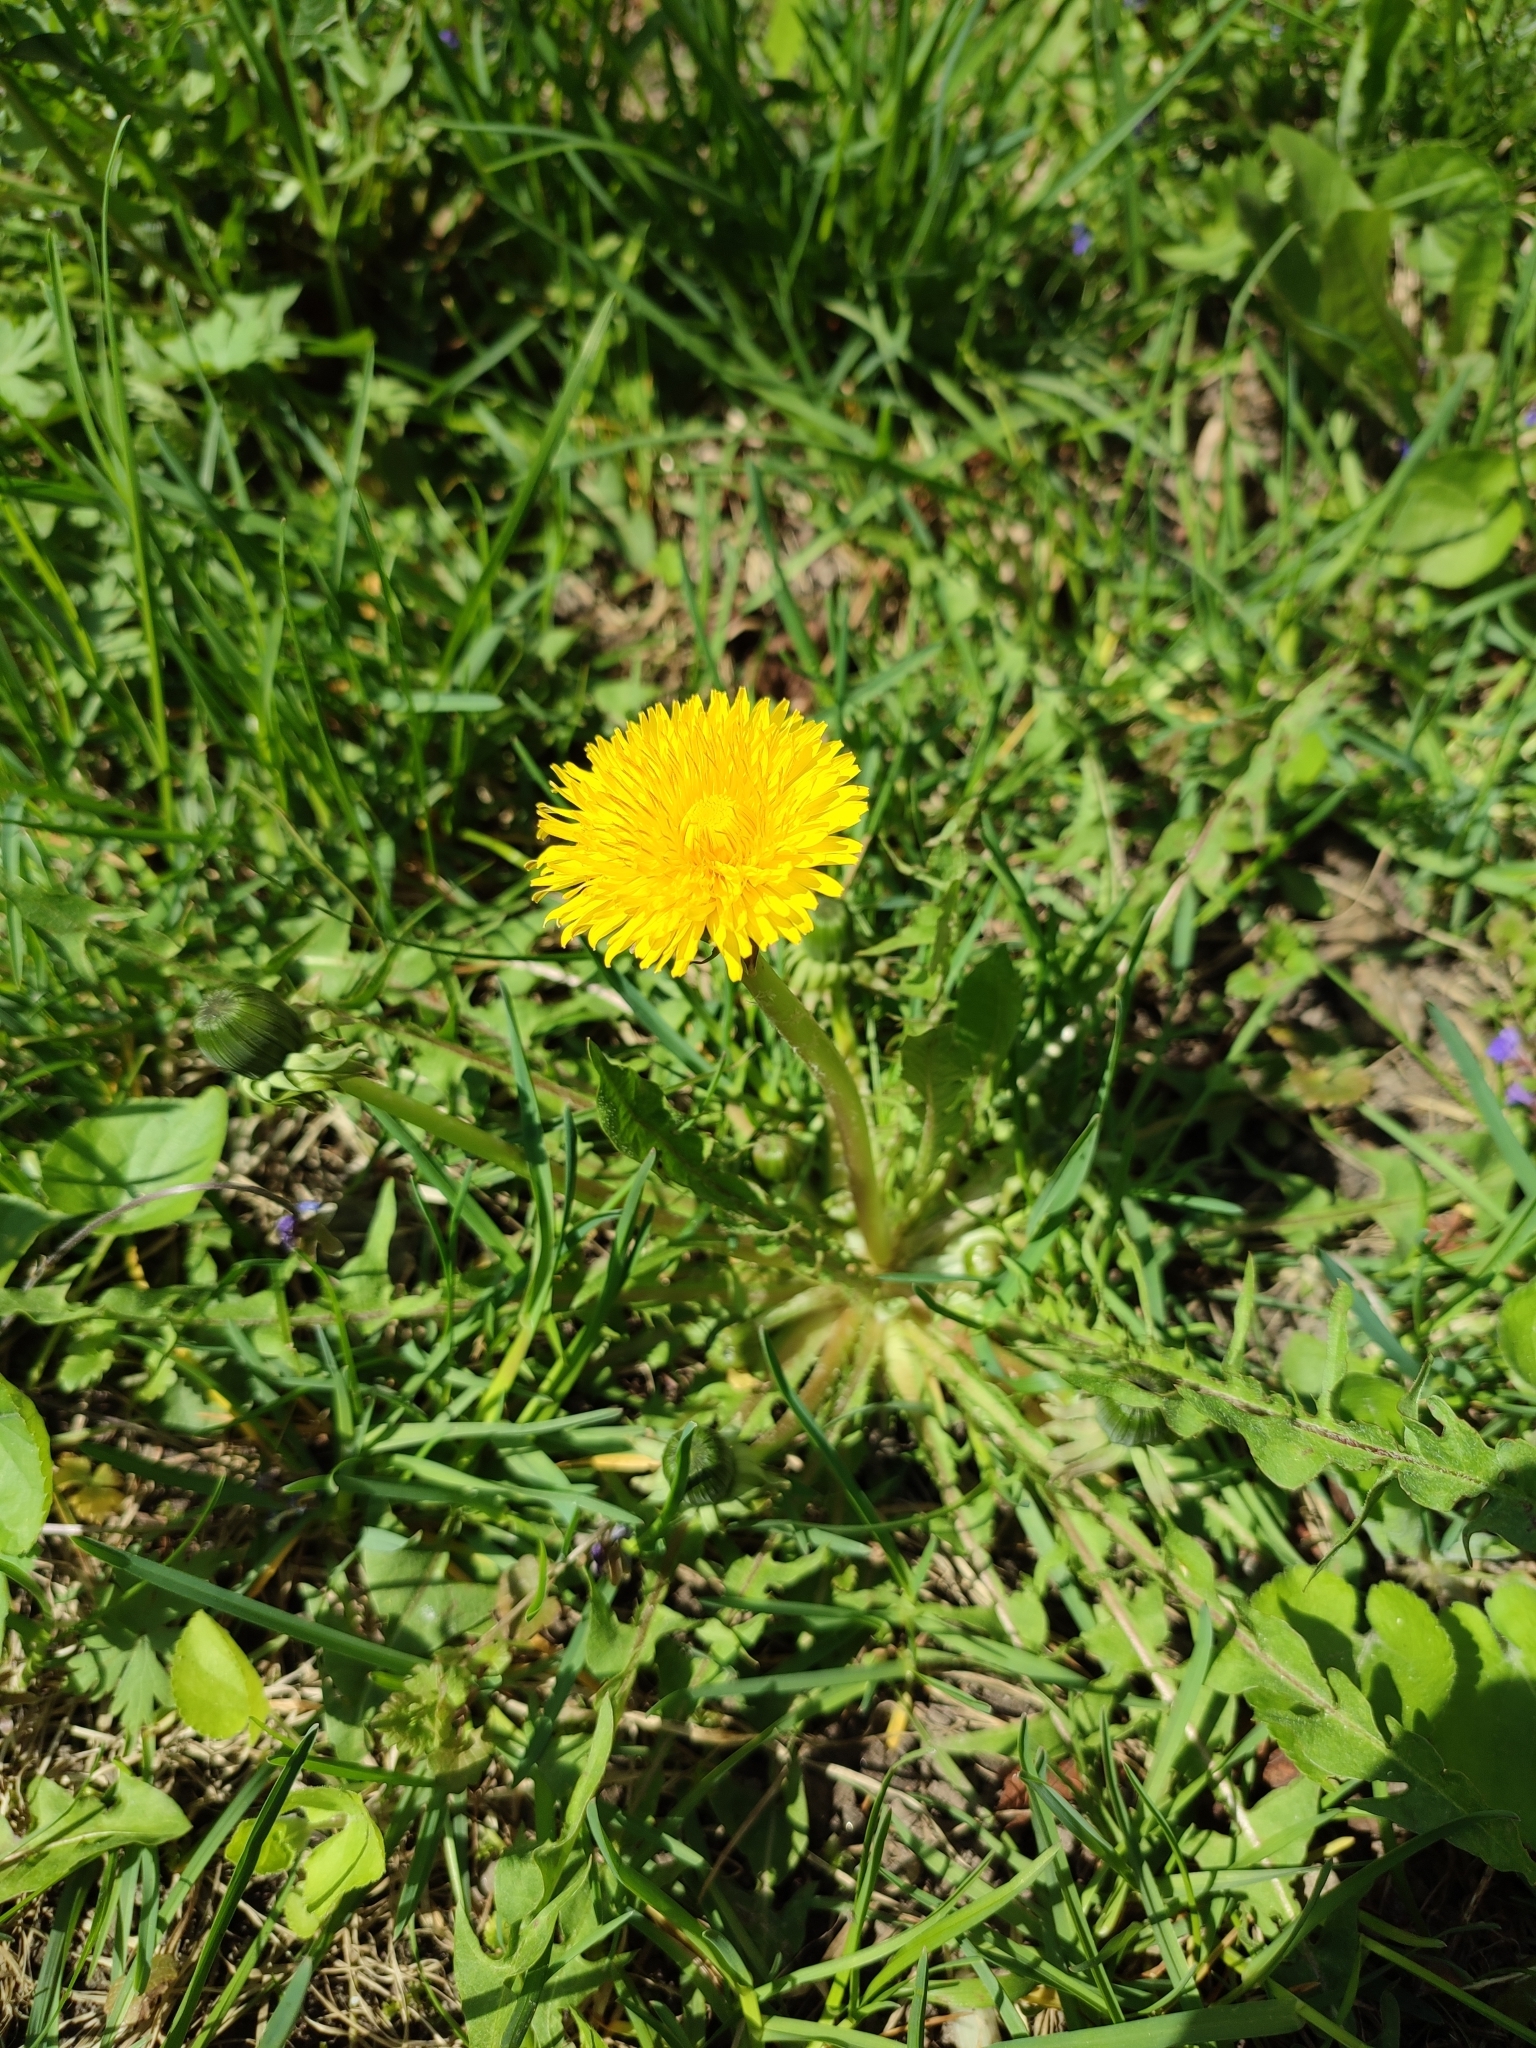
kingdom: Plantae
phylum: Tracheophyta
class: Magnoliopsida
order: Asterales
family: Asteraceae
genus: Taraxacum
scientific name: Taraxacum officinale
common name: Common dandelion
